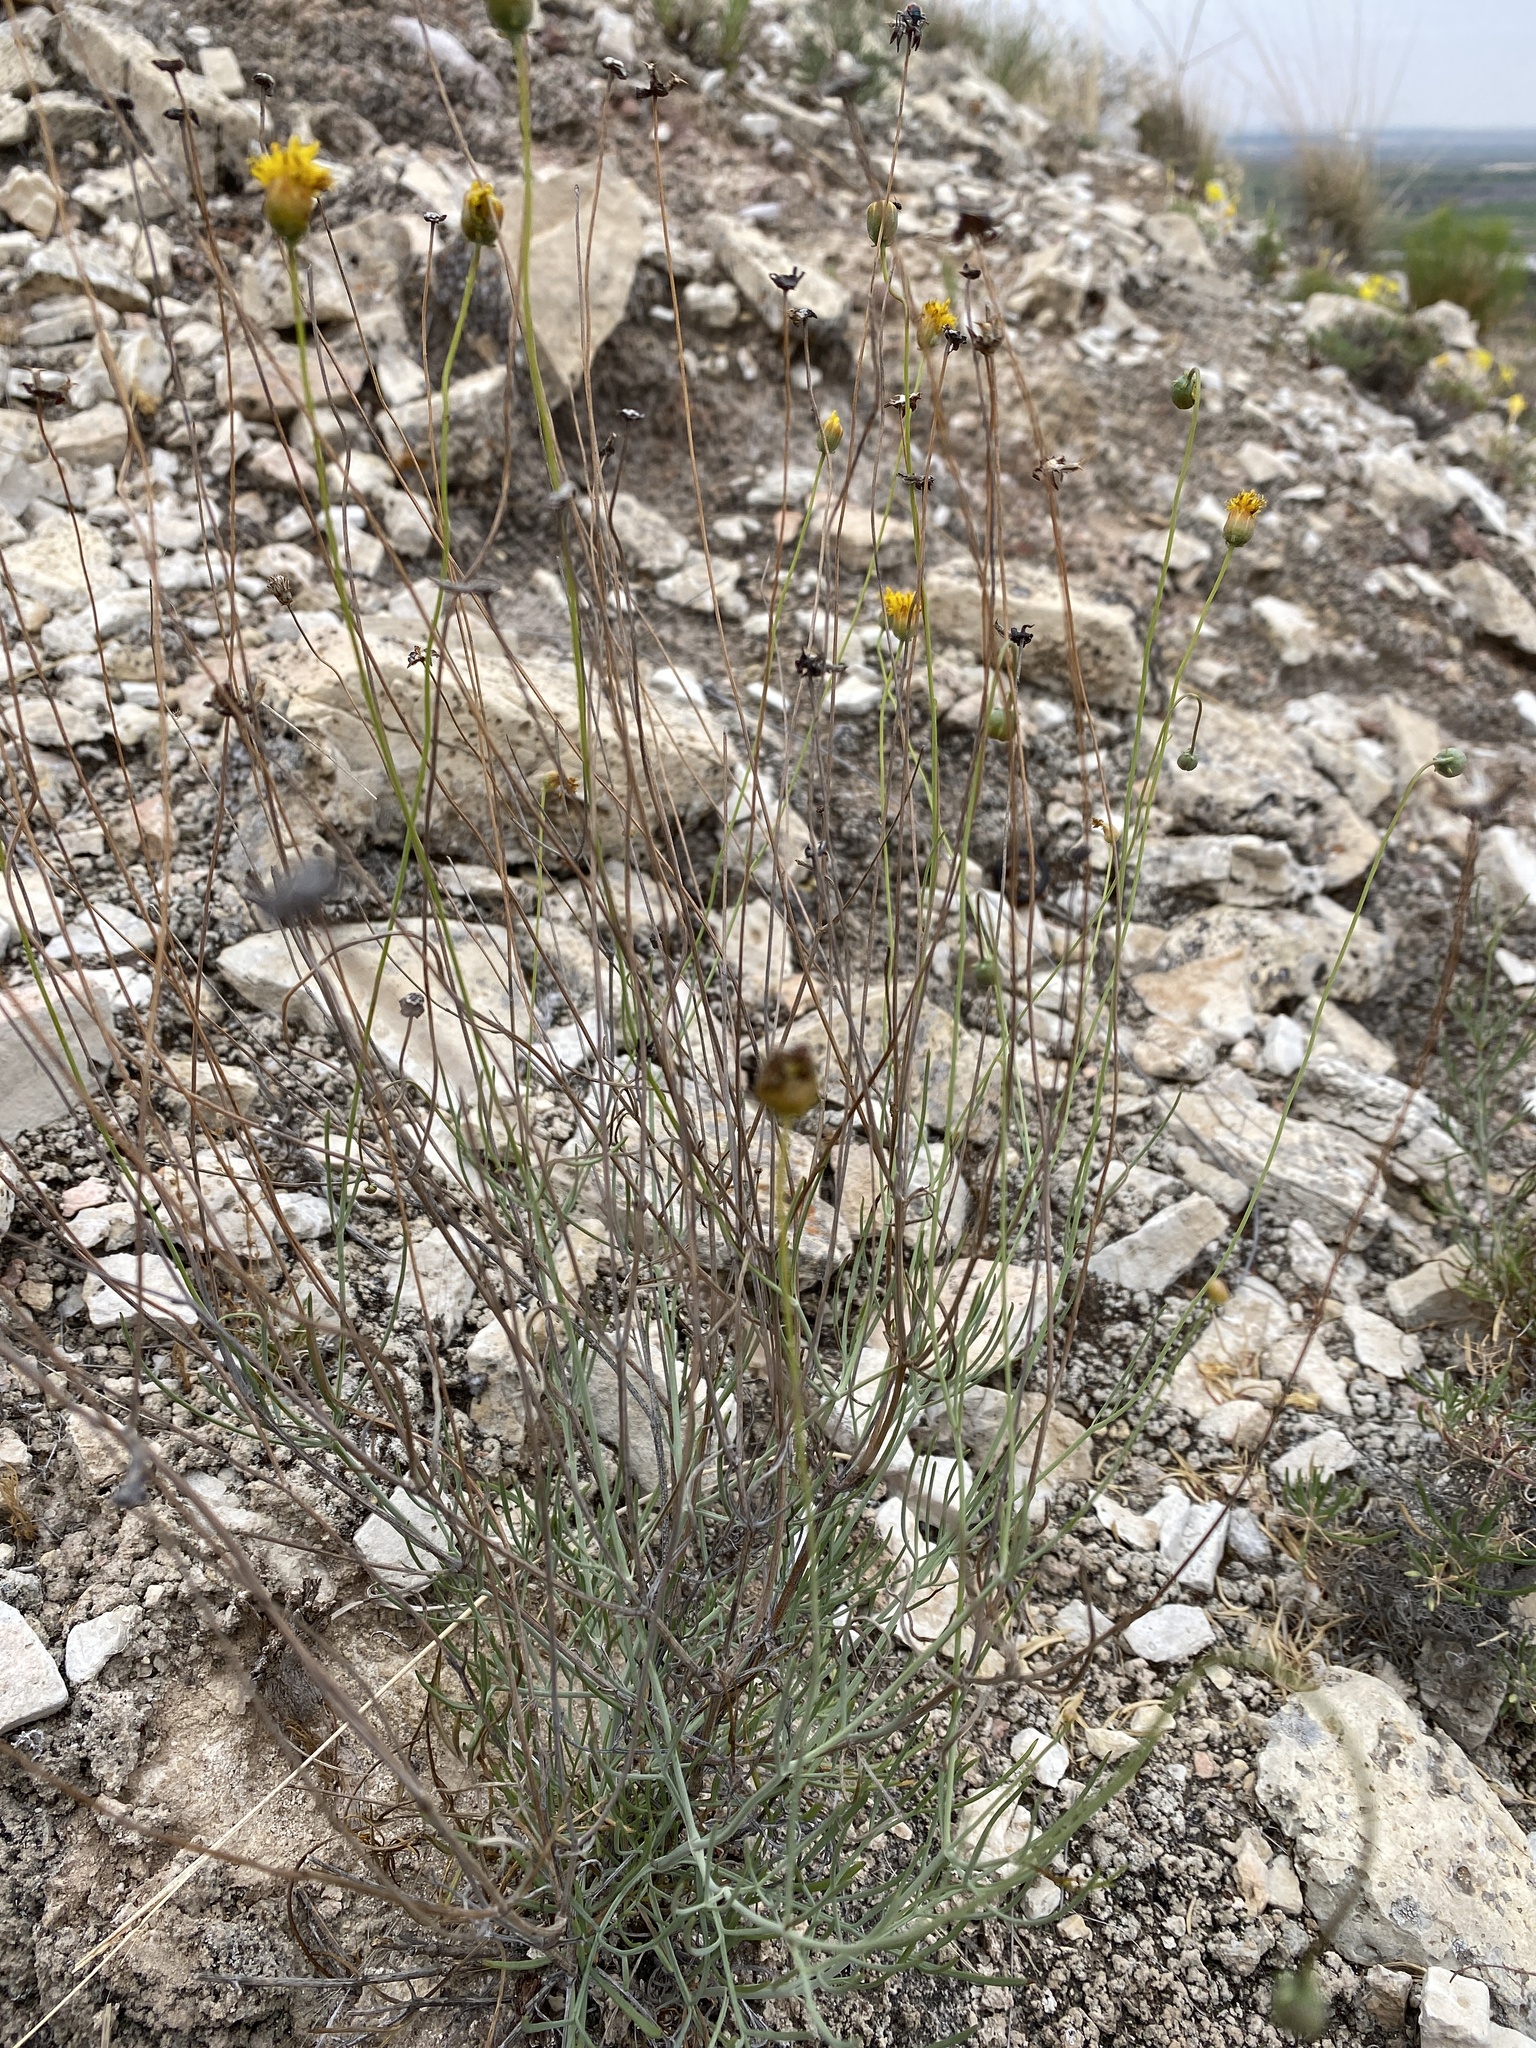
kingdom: Plantae
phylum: Tracheophyta
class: Magnoliopsida
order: Asterales
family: Asteraceae
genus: Thelesperma
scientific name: Thelesperma megapotamicum
